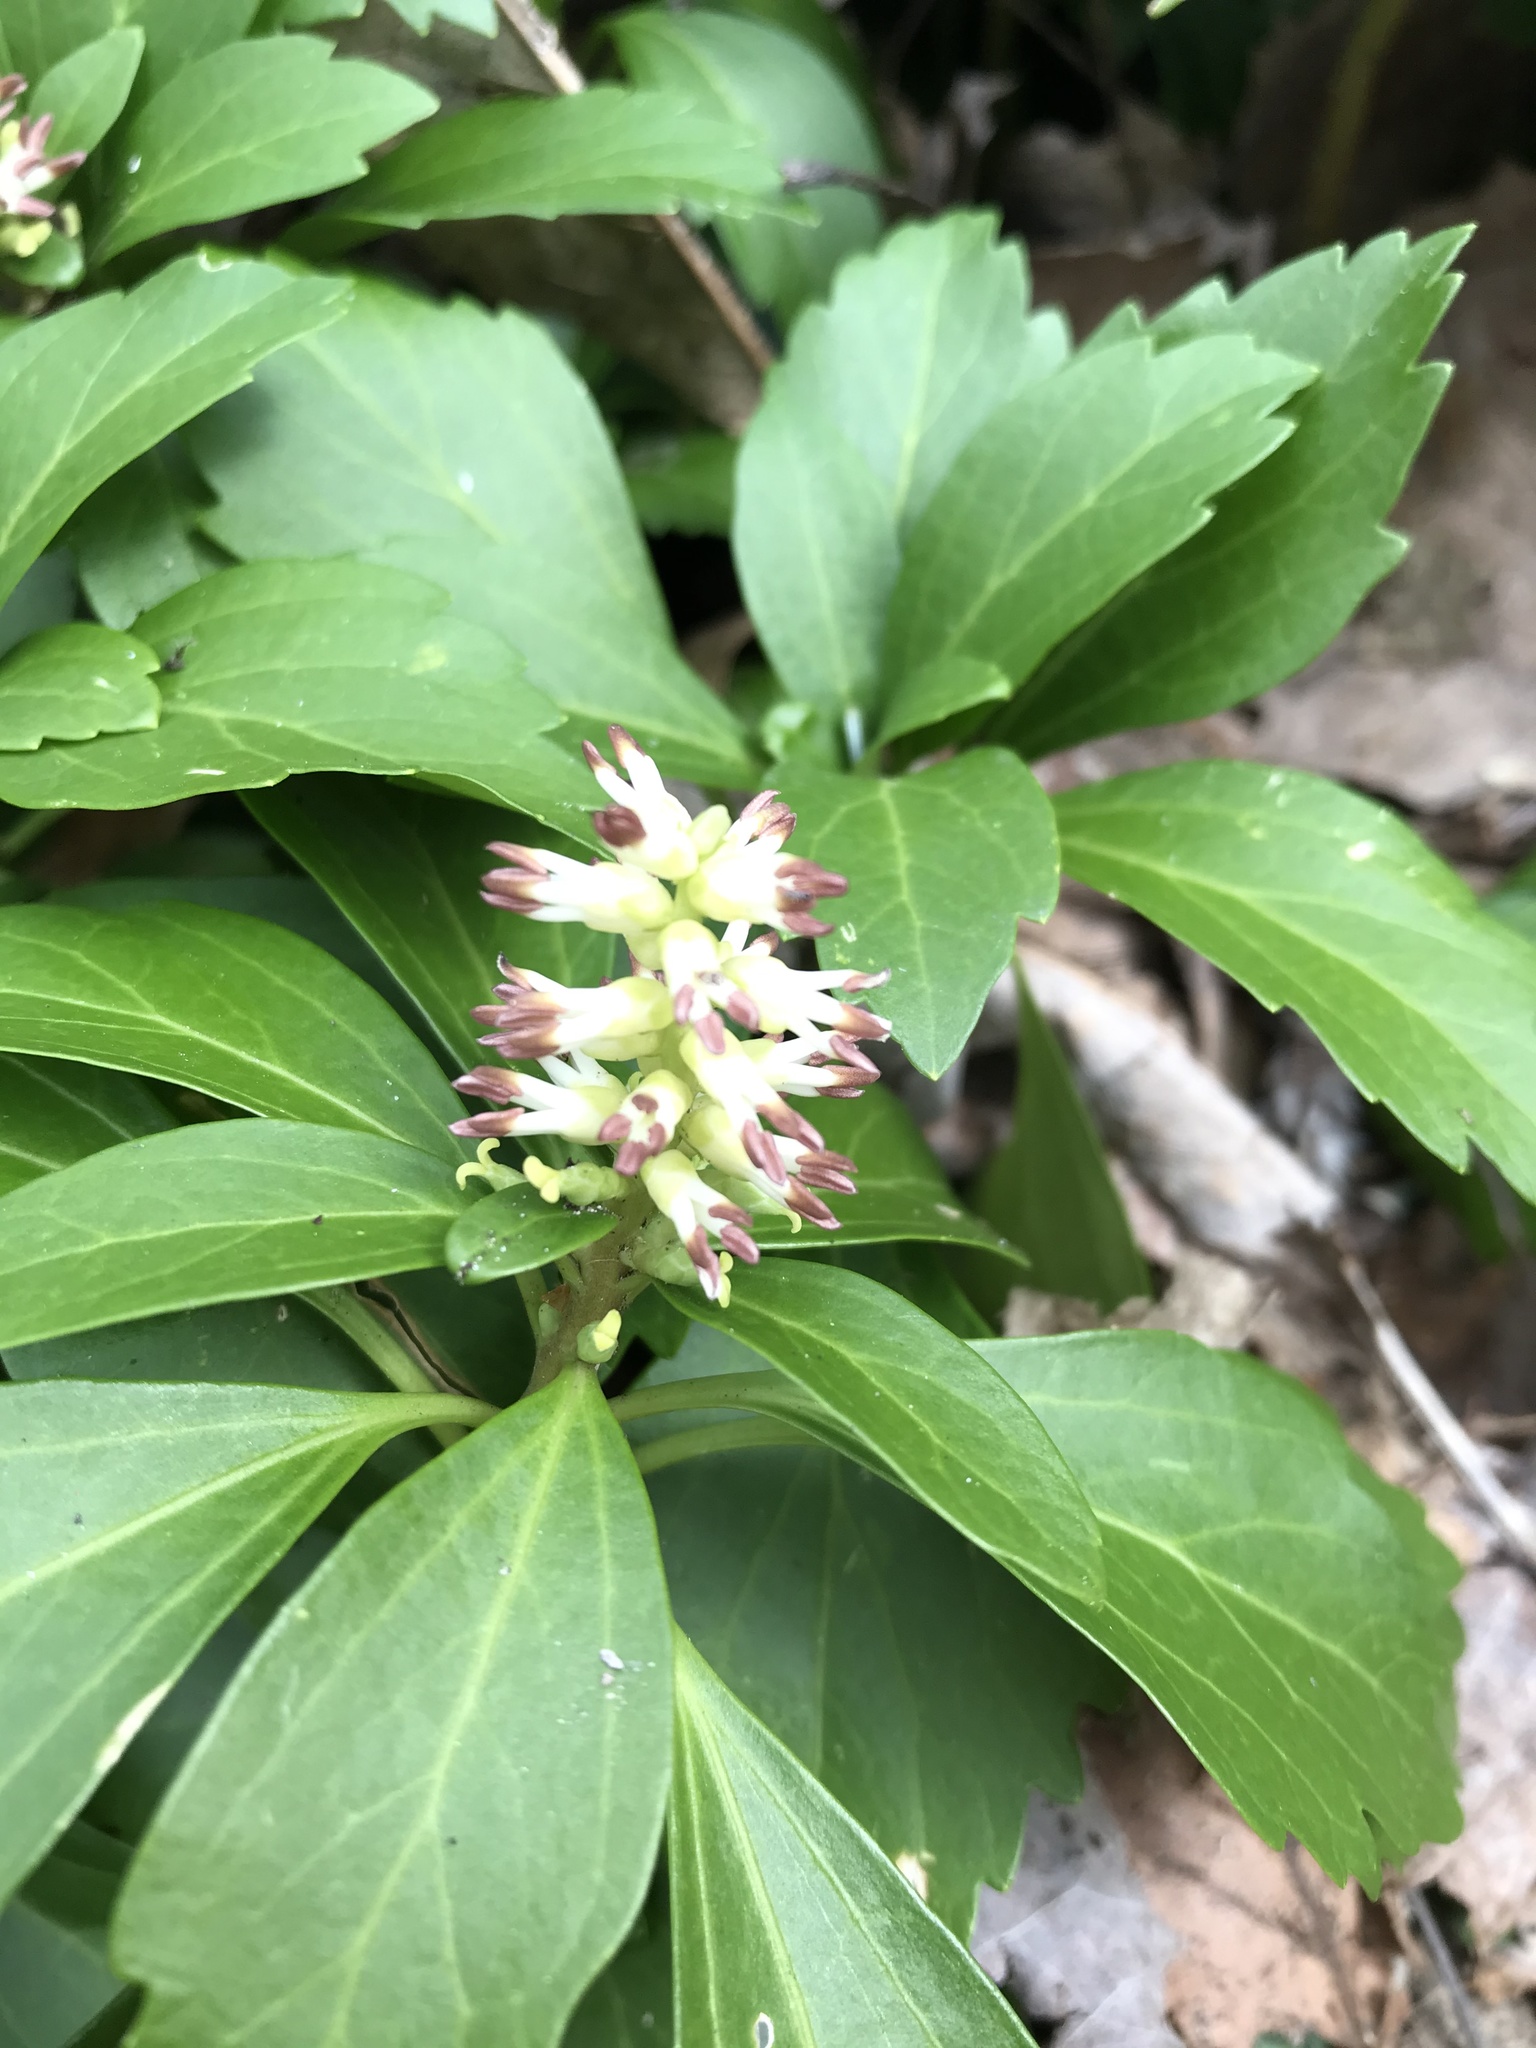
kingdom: Plantae
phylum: Tracheophyta
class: Magnoliopsida
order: Buxales
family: Buxaceae
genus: Pachysandra
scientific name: Pachysandra terminalis
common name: Japanese pachysandra
